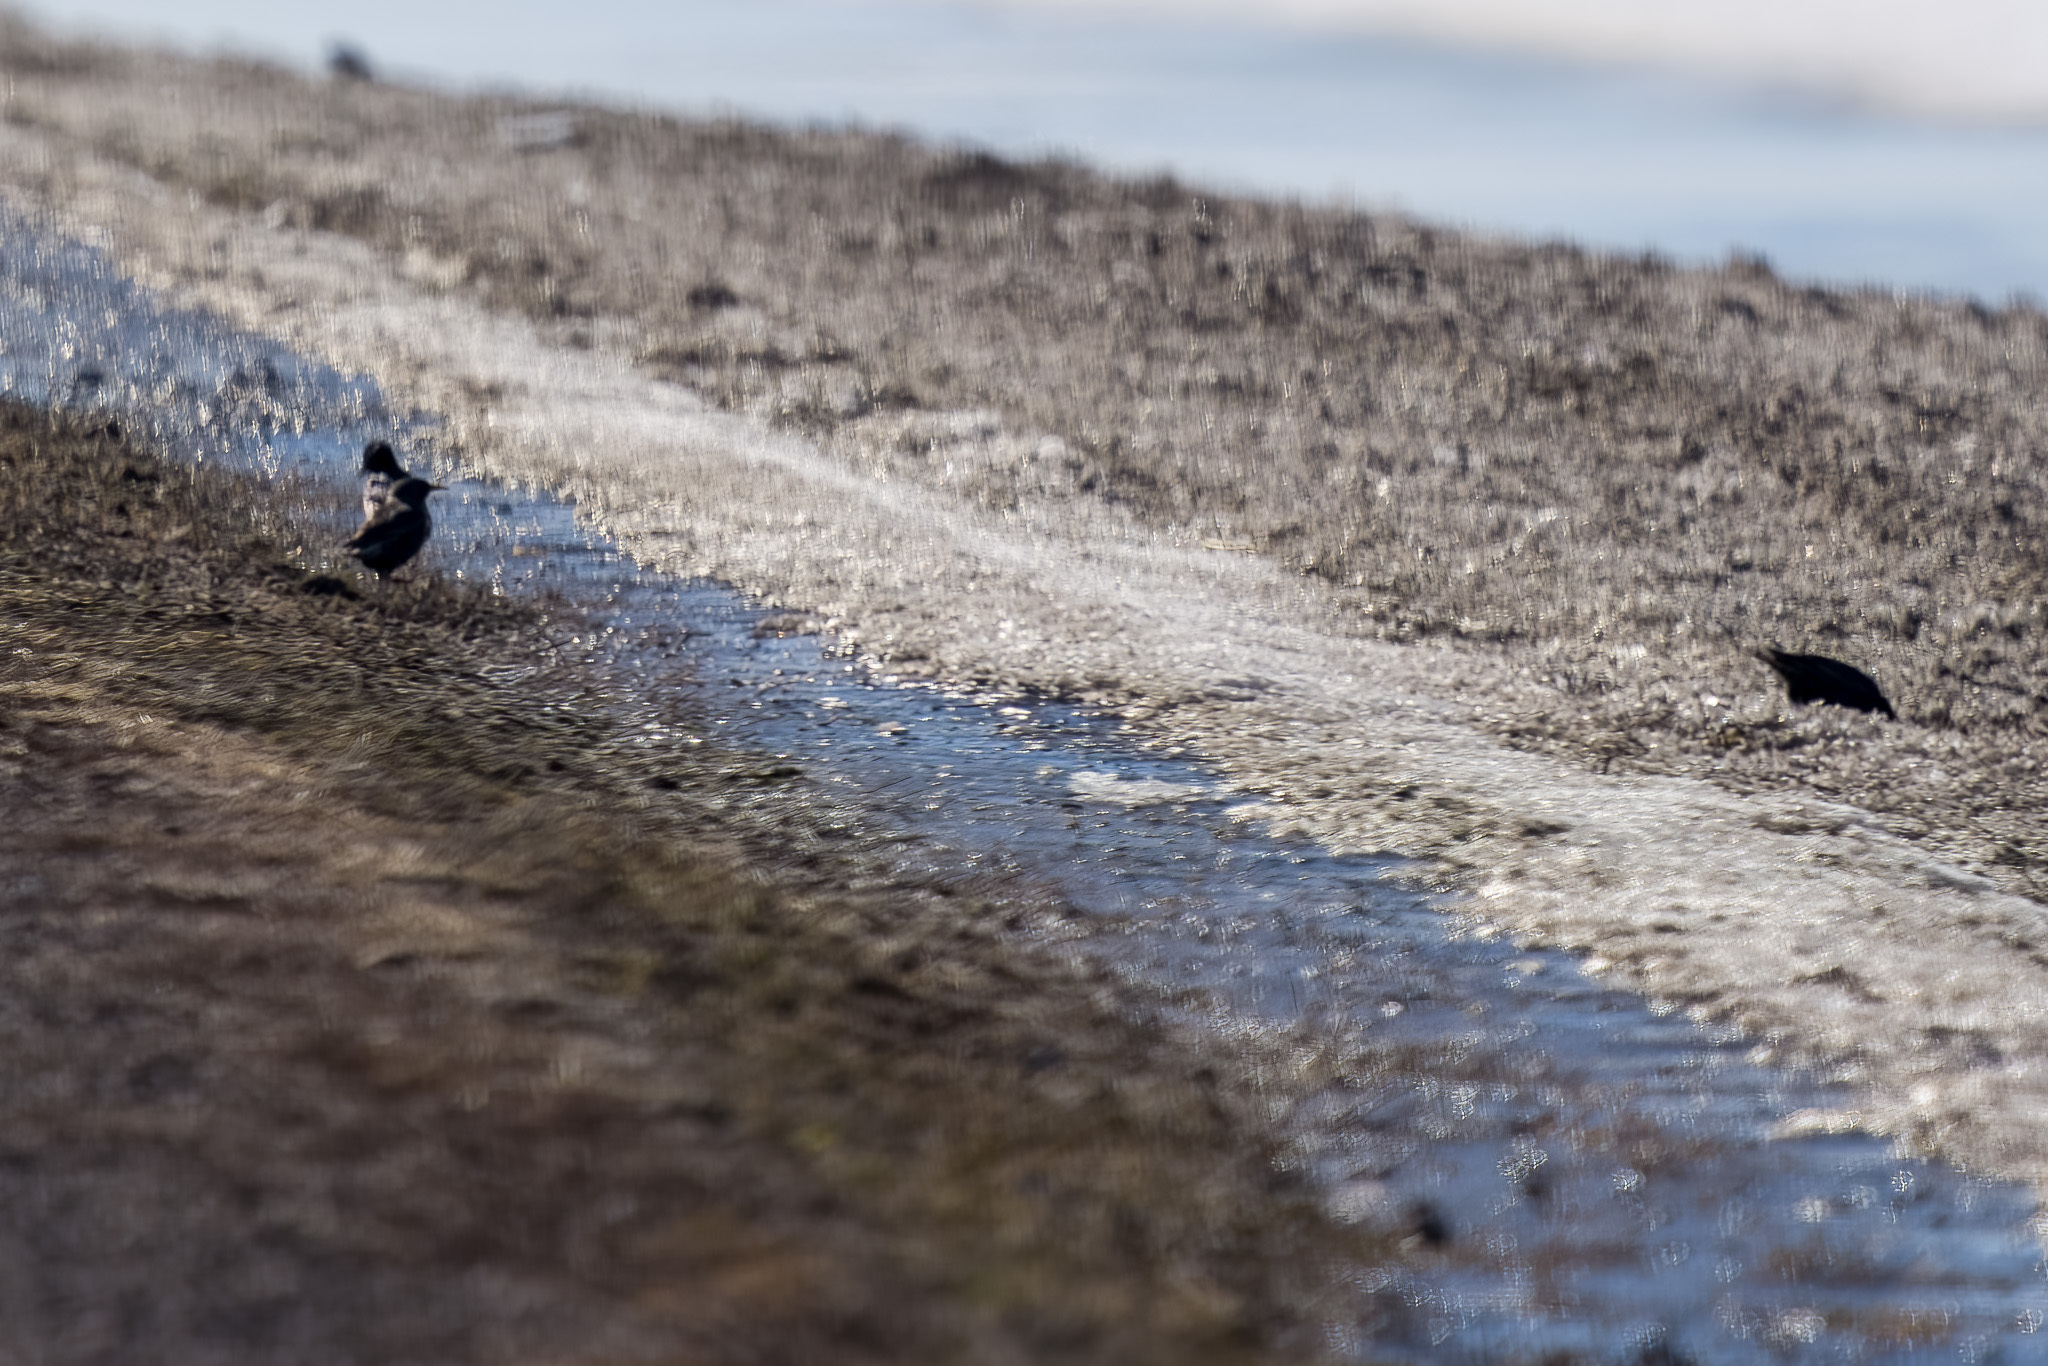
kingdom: Animalia
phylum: Chordata
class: Aves
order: Passeriformes
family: Sturnidae
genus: Sturnus
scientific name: Sturnus vulgaris
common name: Common starling
